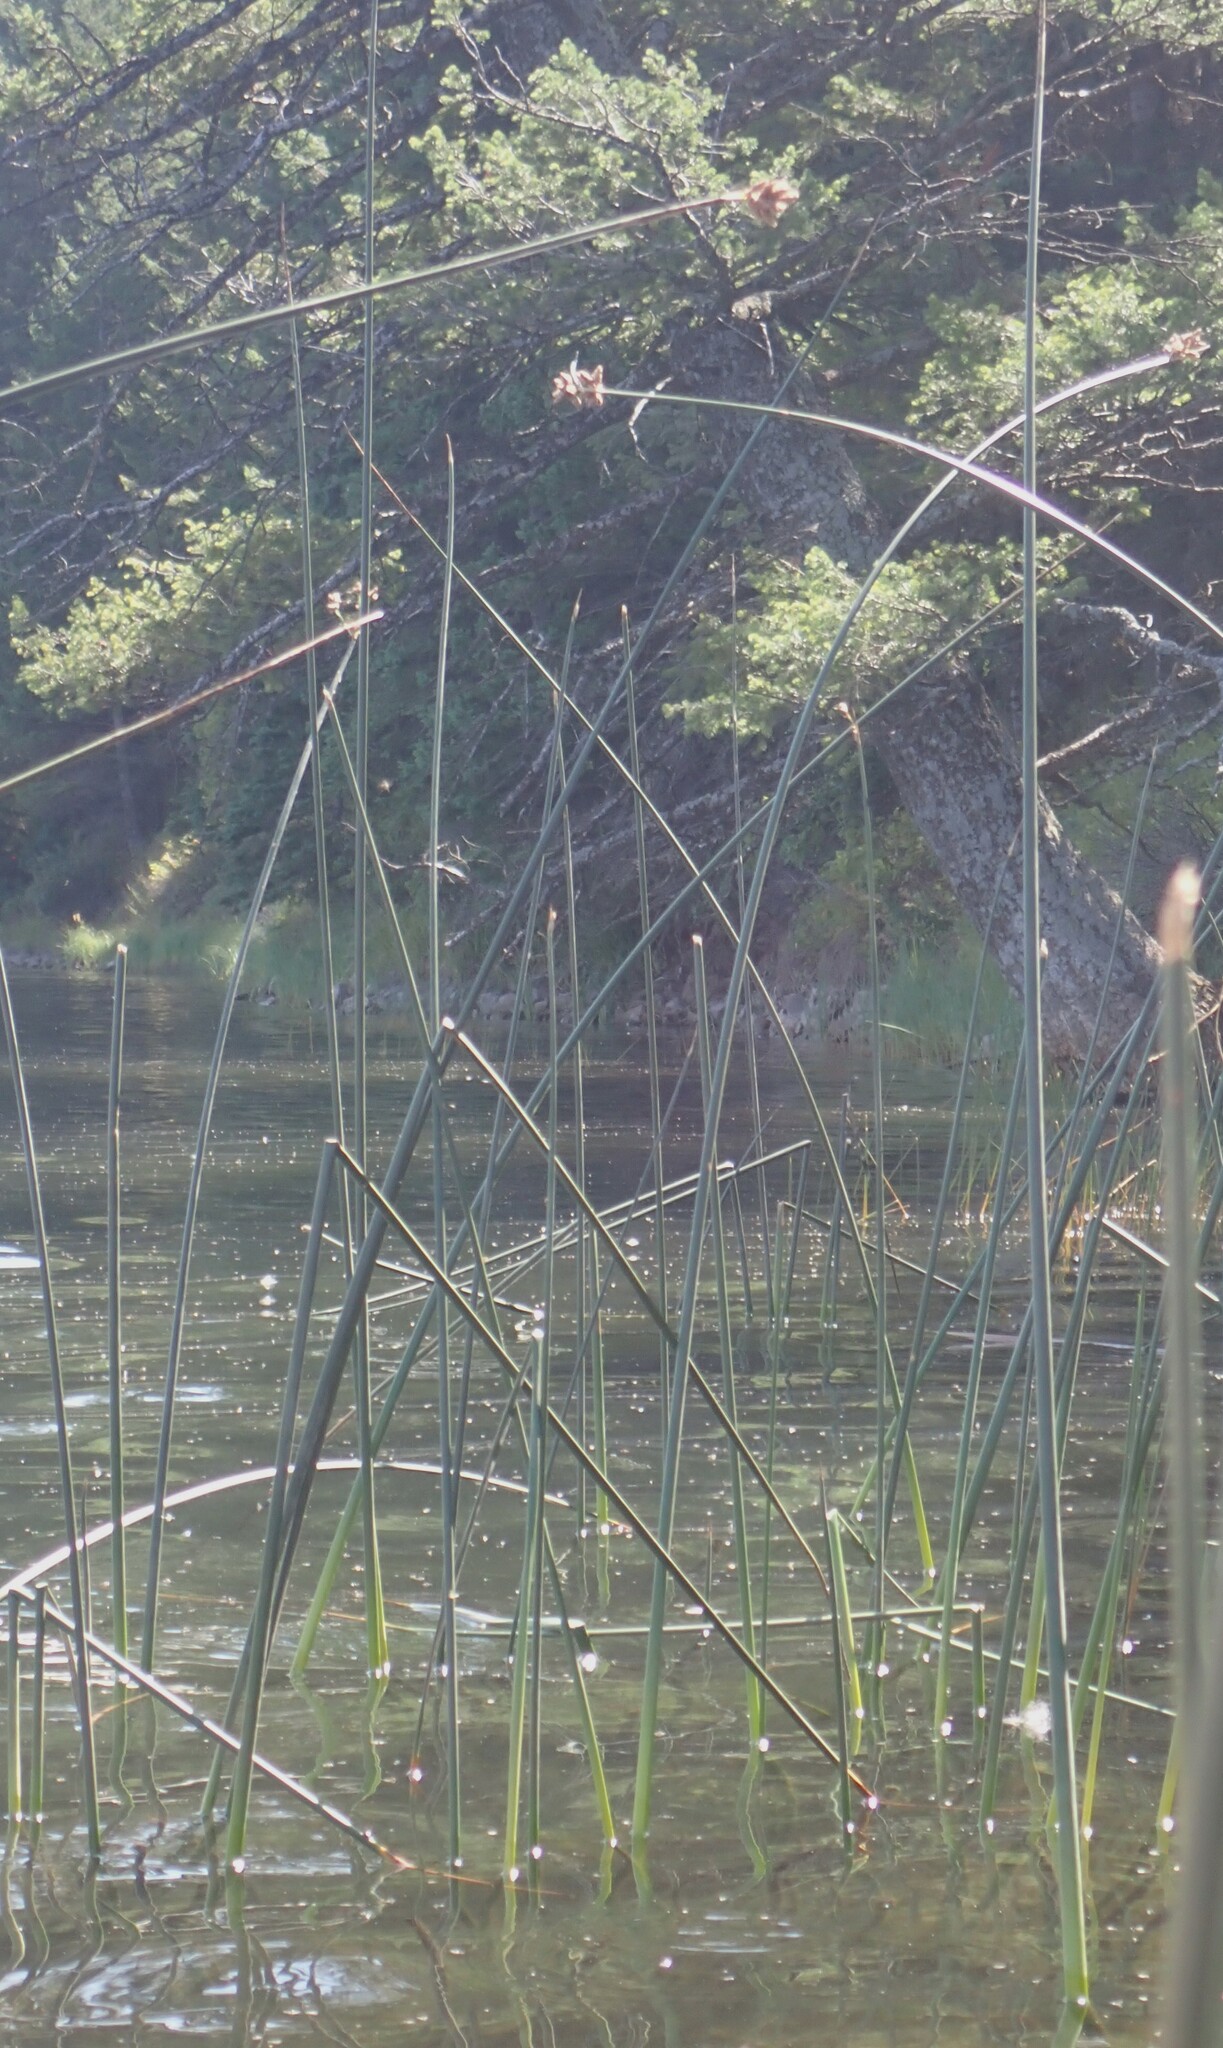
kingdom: Plantae
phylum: Tracheophyta
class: Liliopsida
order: Poales
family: Cyperaceae
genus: Schoenoplectus
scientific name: Schoenoplectus acutus
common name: Hardstem bulrush
